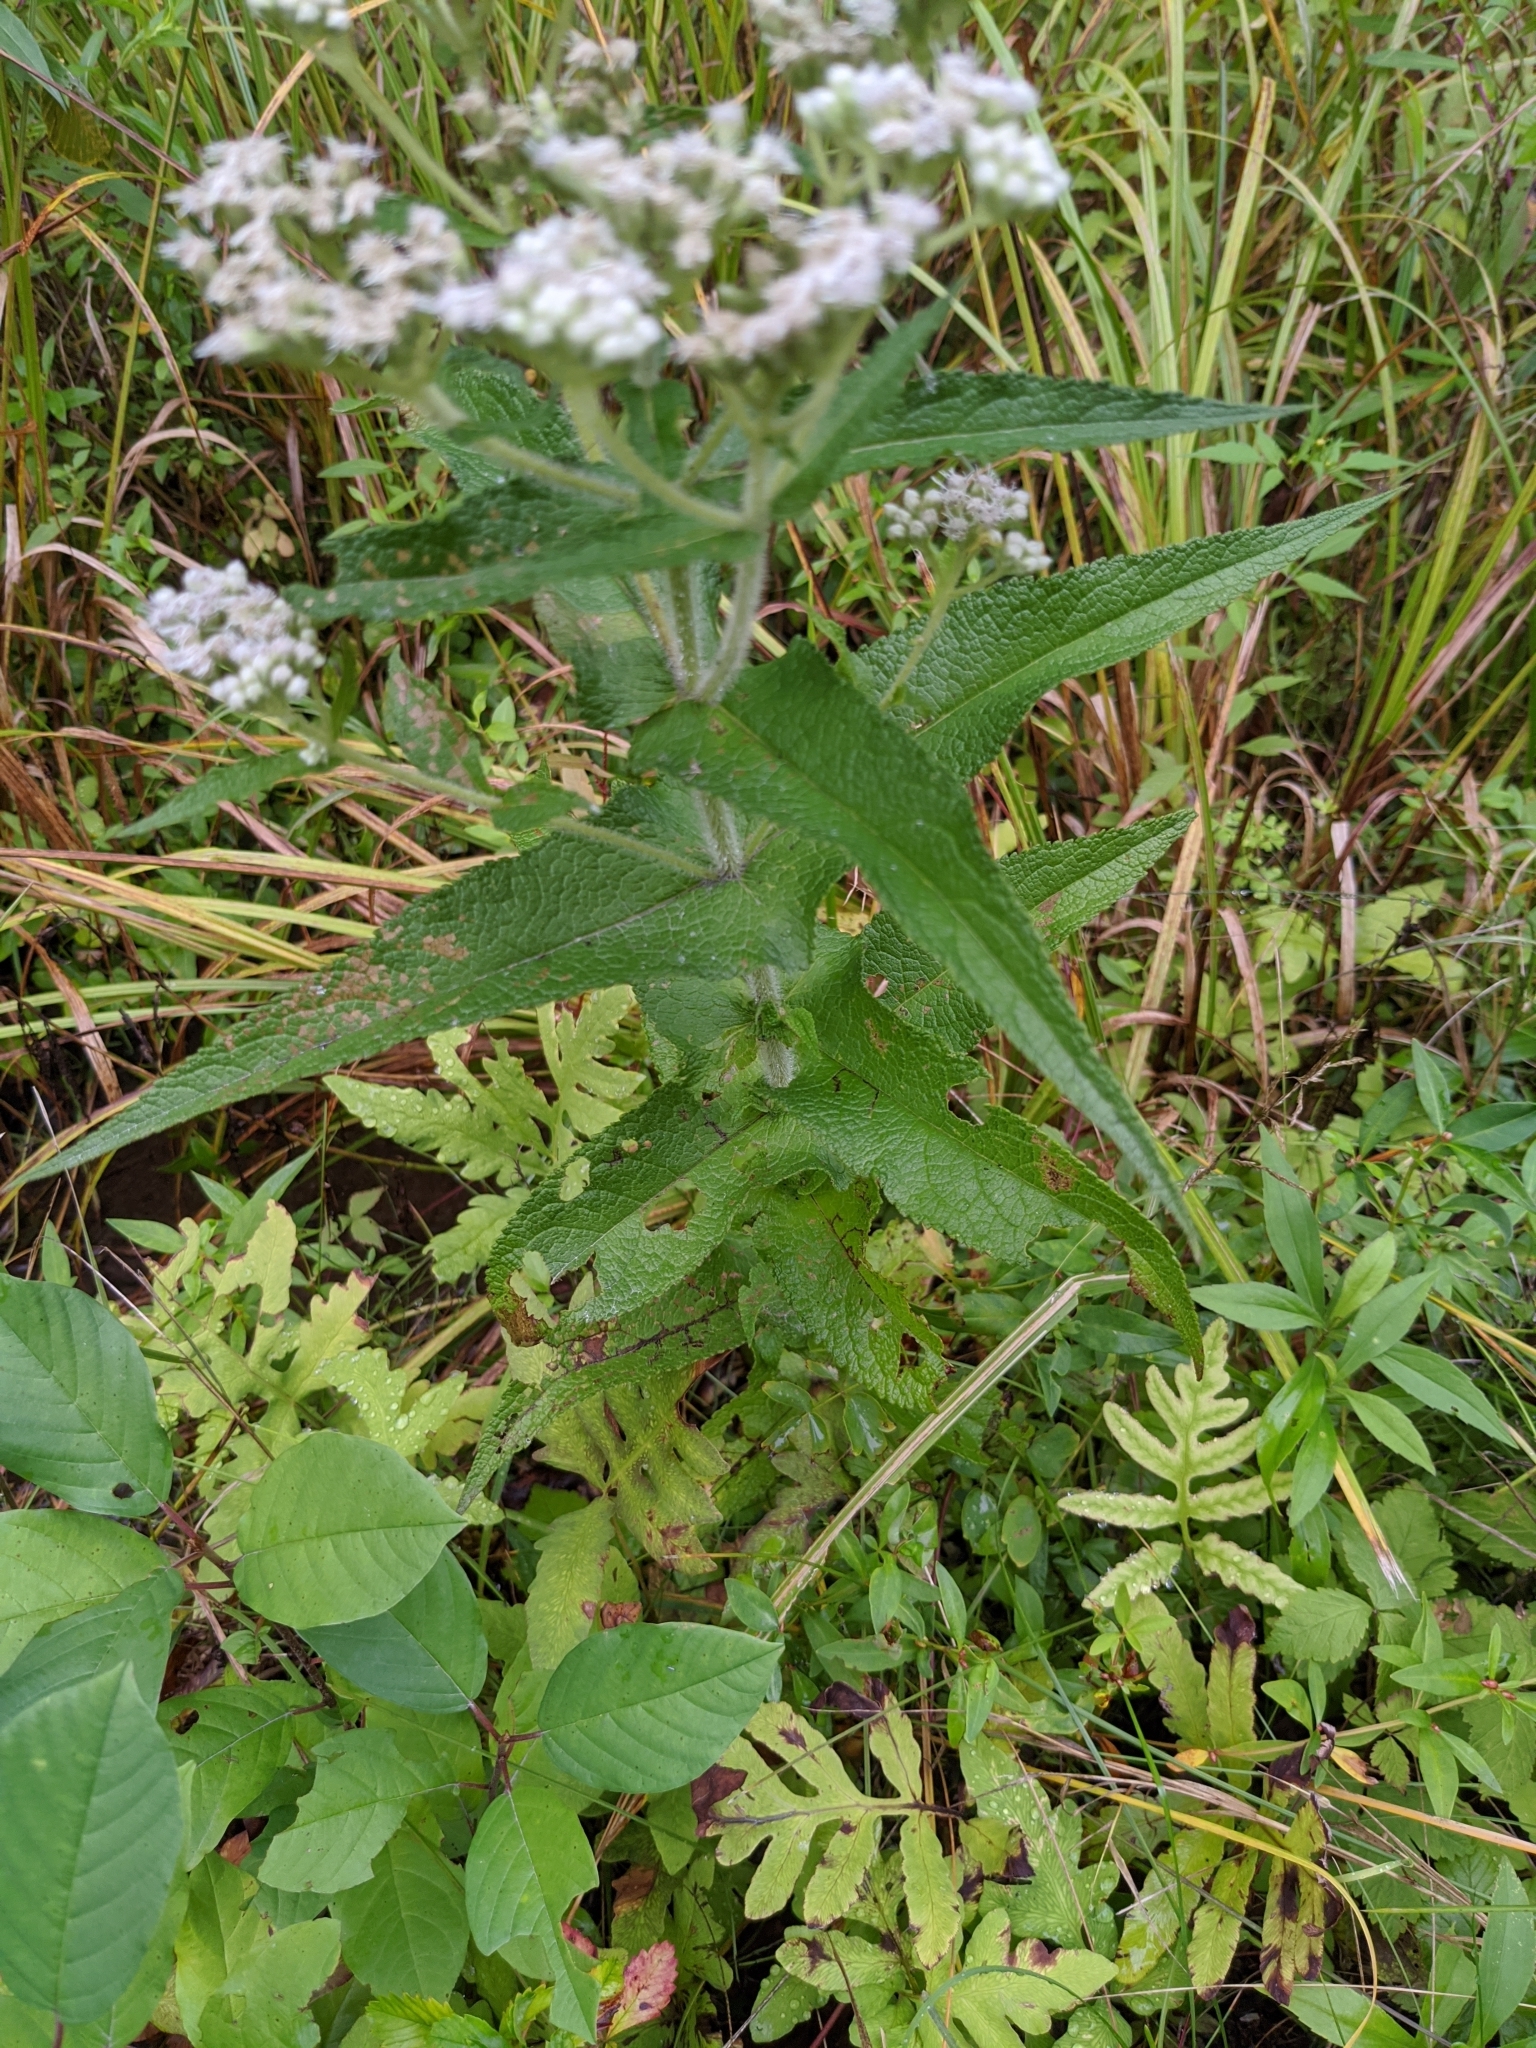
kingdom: Plantae
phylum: Tracheophyta
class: Magnoliopsida
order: Asterales
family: Asteraceae
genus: Eupatorium
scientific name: Eupatorium perfoliatum
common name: Boneset
